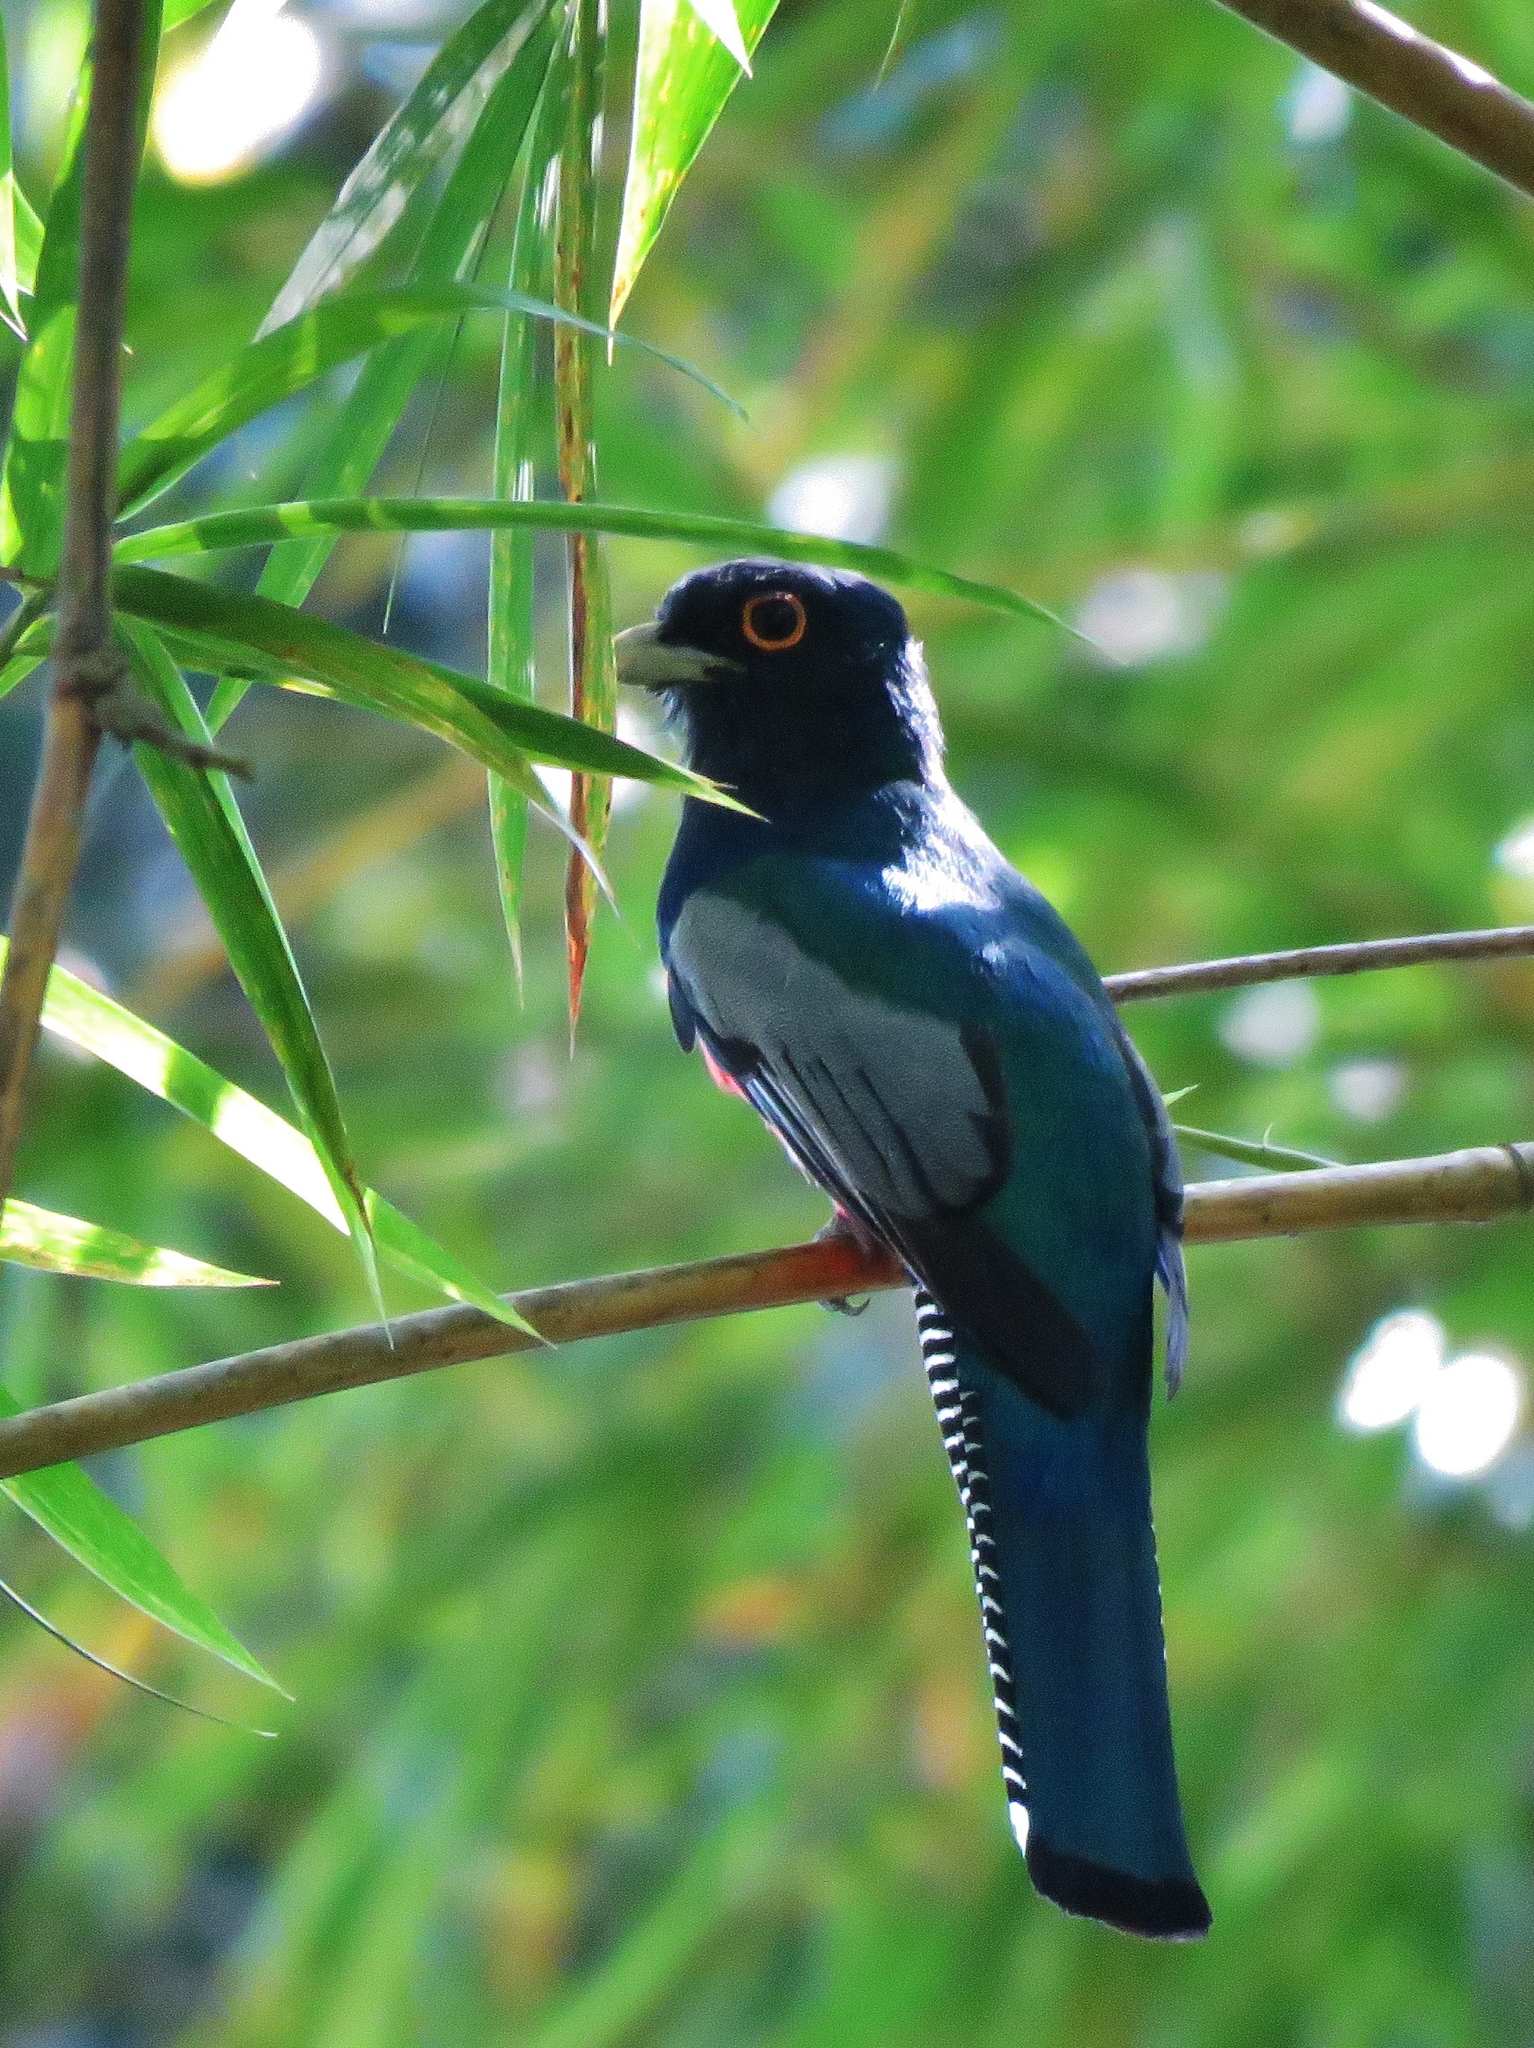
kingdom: Animalia
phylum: Chordata
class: Aves
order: Trogoniformes
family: Trogonidae
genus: Trogon
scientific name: Trogon curucui
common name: Blue-crowned trogon
